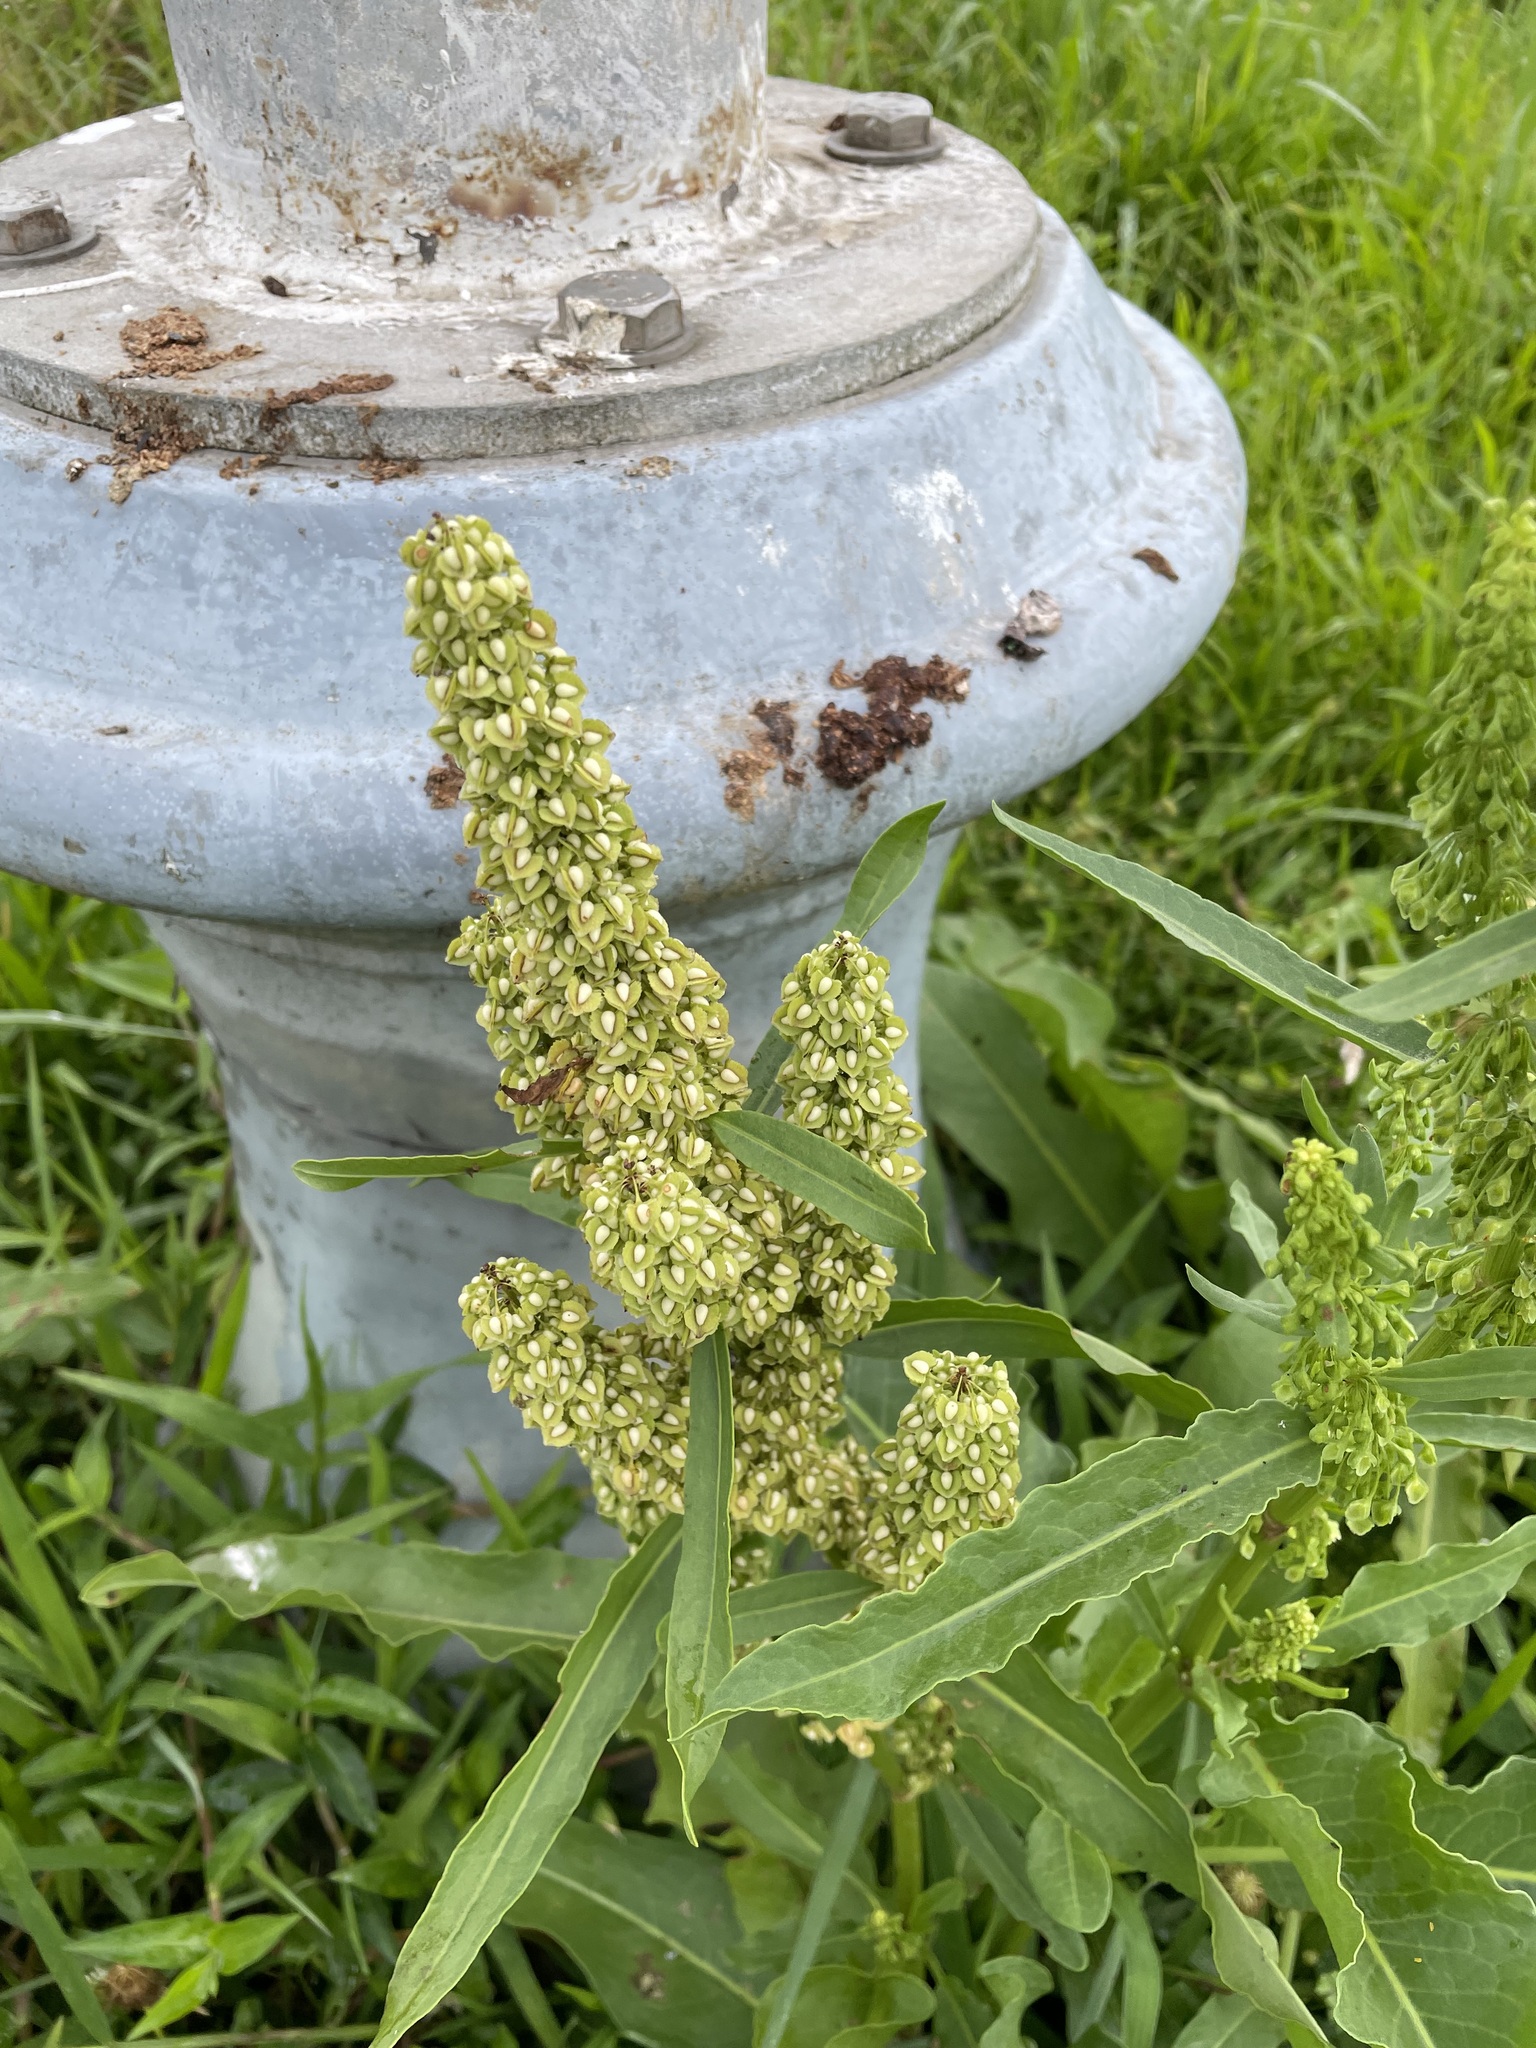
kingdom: Plantae
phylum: Tracheophyta
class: Magnoliopsida
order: Caryophyllales
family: Polygonaceae
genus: Rumex
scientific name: Rumex japonicus
